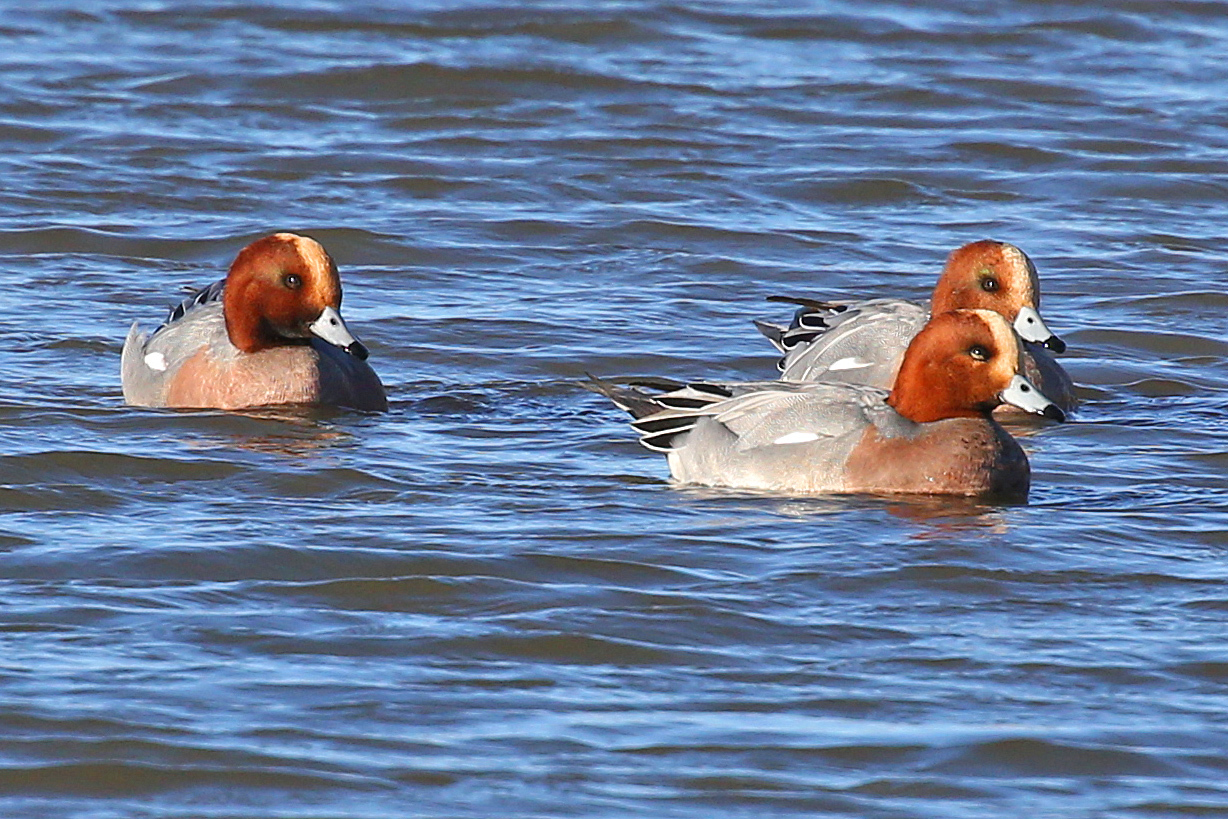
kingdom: Animalia
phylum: Chordata
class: Aves
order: Anseriformes
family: Anatidae
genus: Mareca
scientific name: Mareca penelope
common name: Eurasian wigeon
